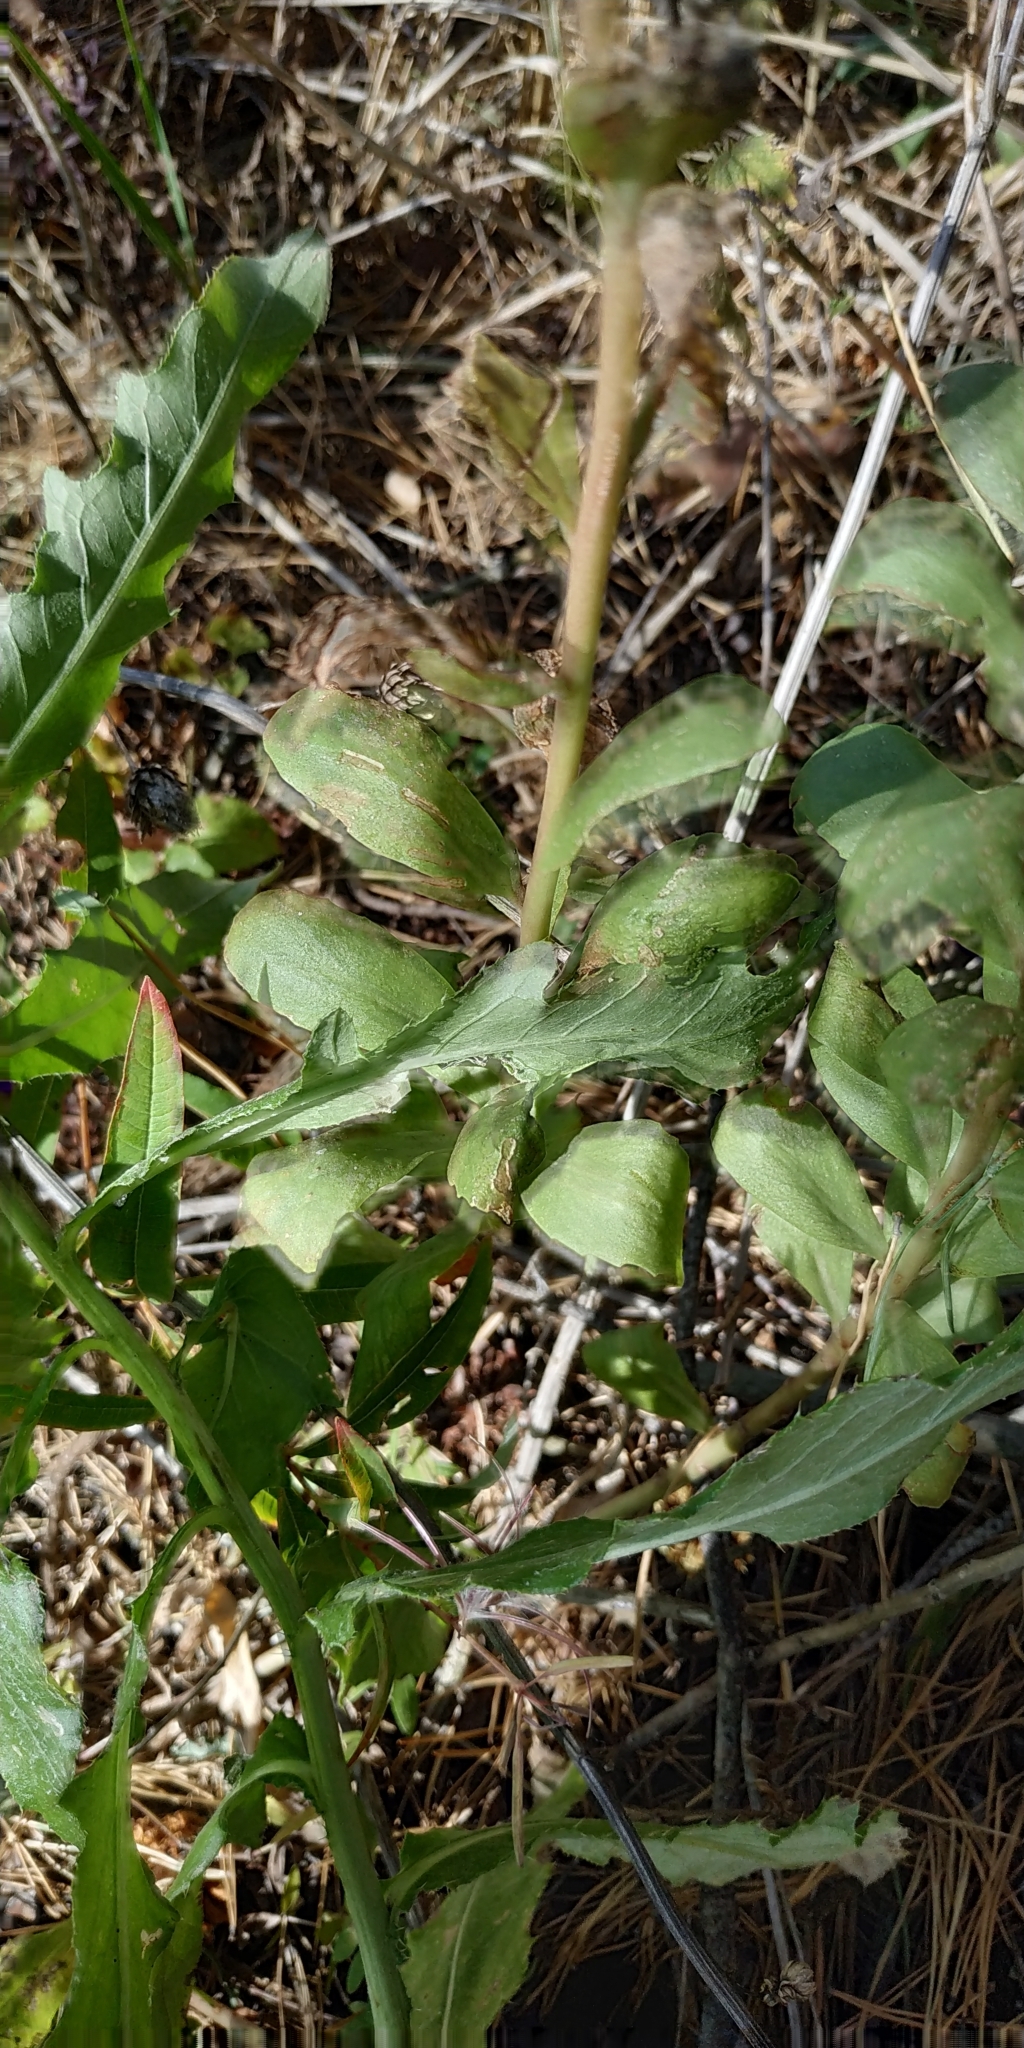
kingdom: Plantae
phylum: Tracheophyta
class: Magnoliopsida
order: Saxifragales
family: Crassulaceae
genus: Hylotelephium
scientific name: Hylotelephium telephium
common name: Live-forever
